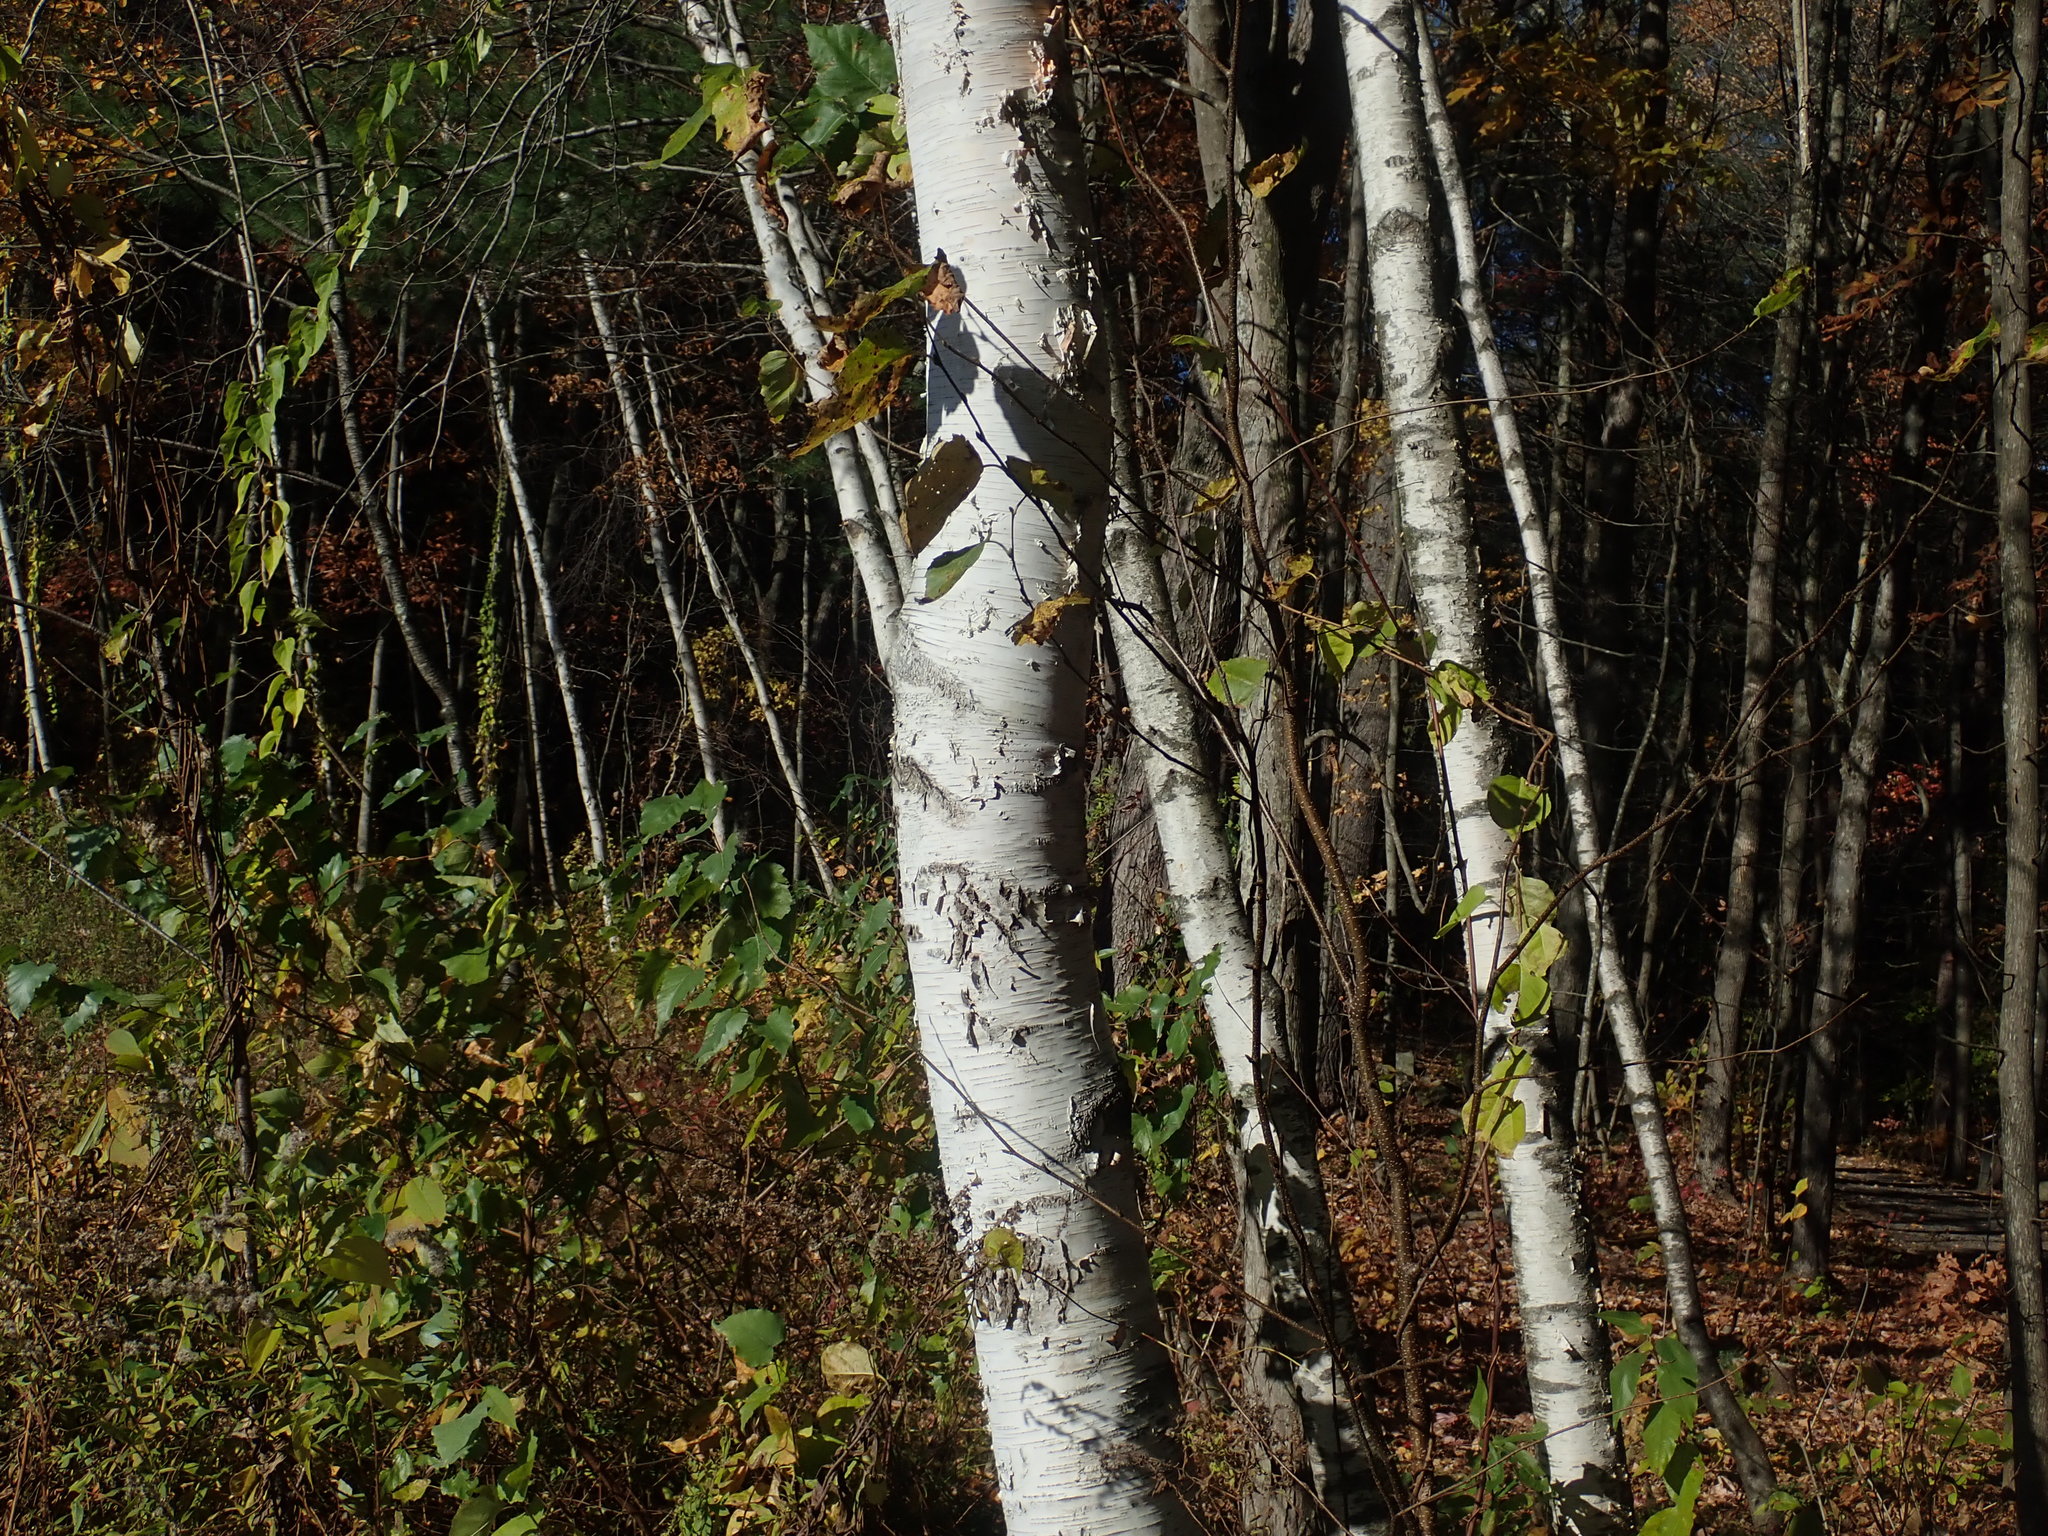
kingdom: Plantae
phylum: Tracheophyta
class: Magnoliopsida
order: Fagales
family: Betulaceae
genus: Betula
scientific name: Betula papyrifera
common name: Paper birch
